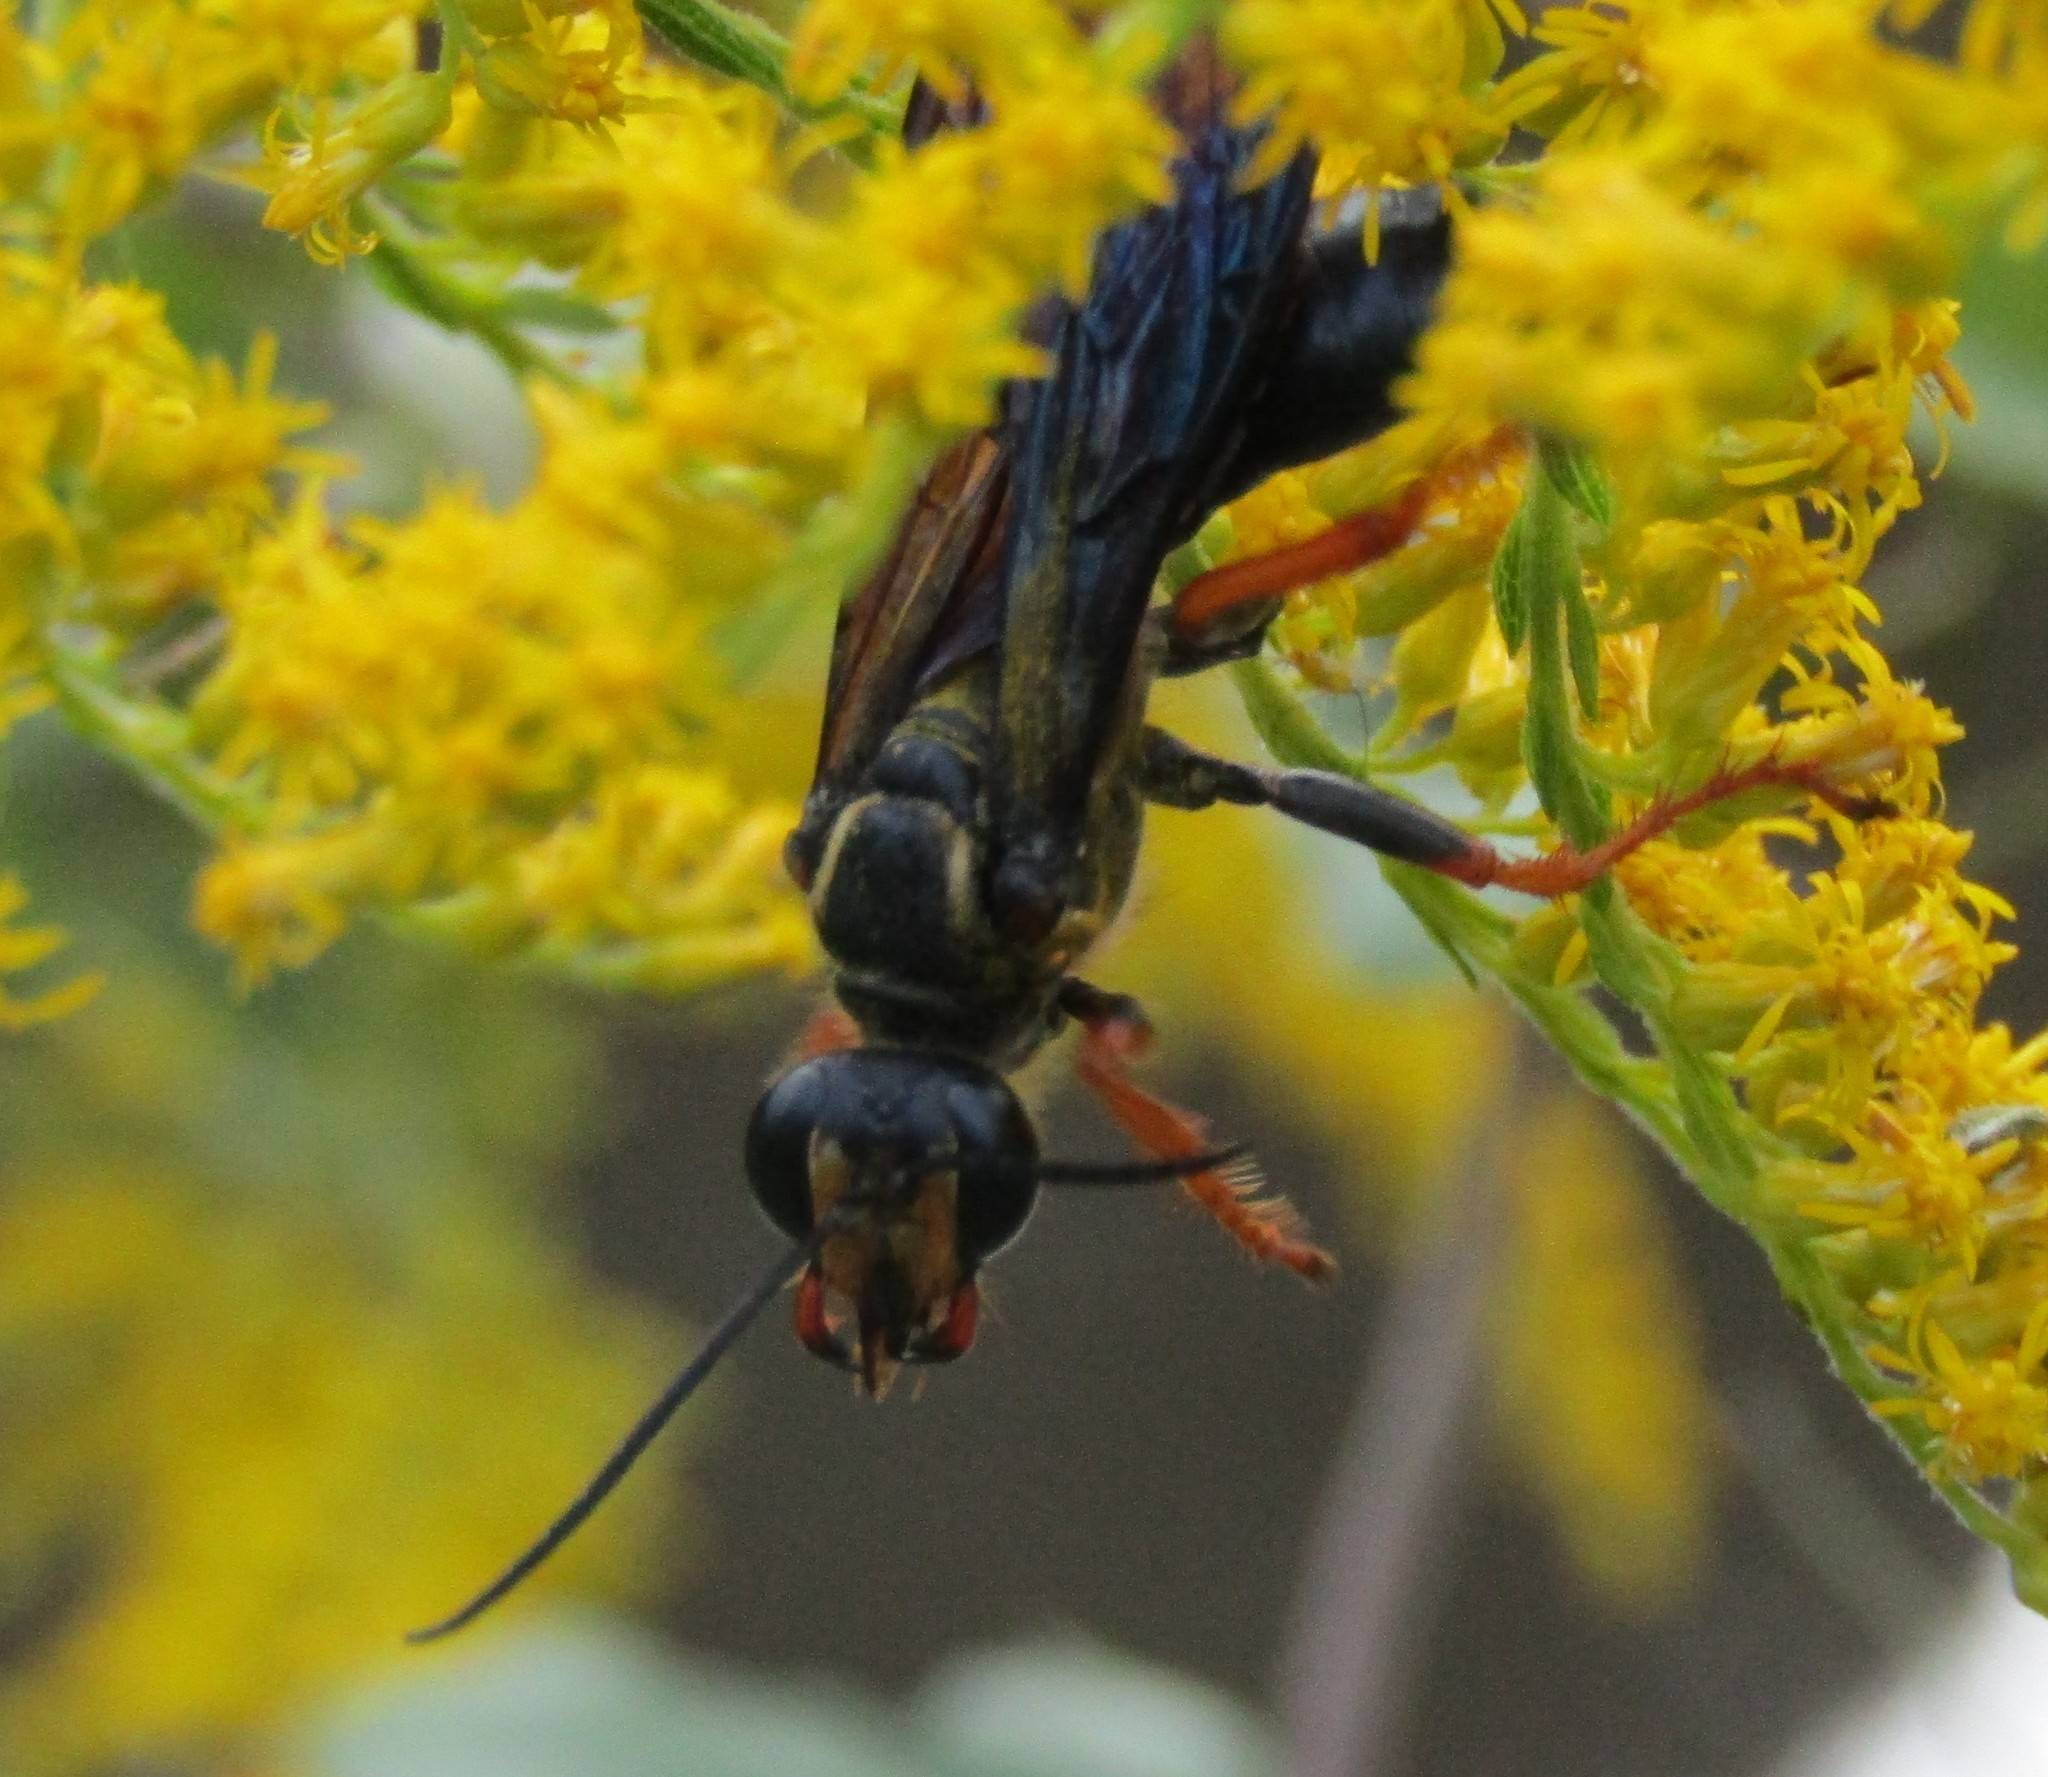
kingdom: Animalia
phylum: Arthropoda
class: Insecta
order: Hymenoptera
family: Sphecidae
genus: Sphex
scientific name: Sphex nudus
